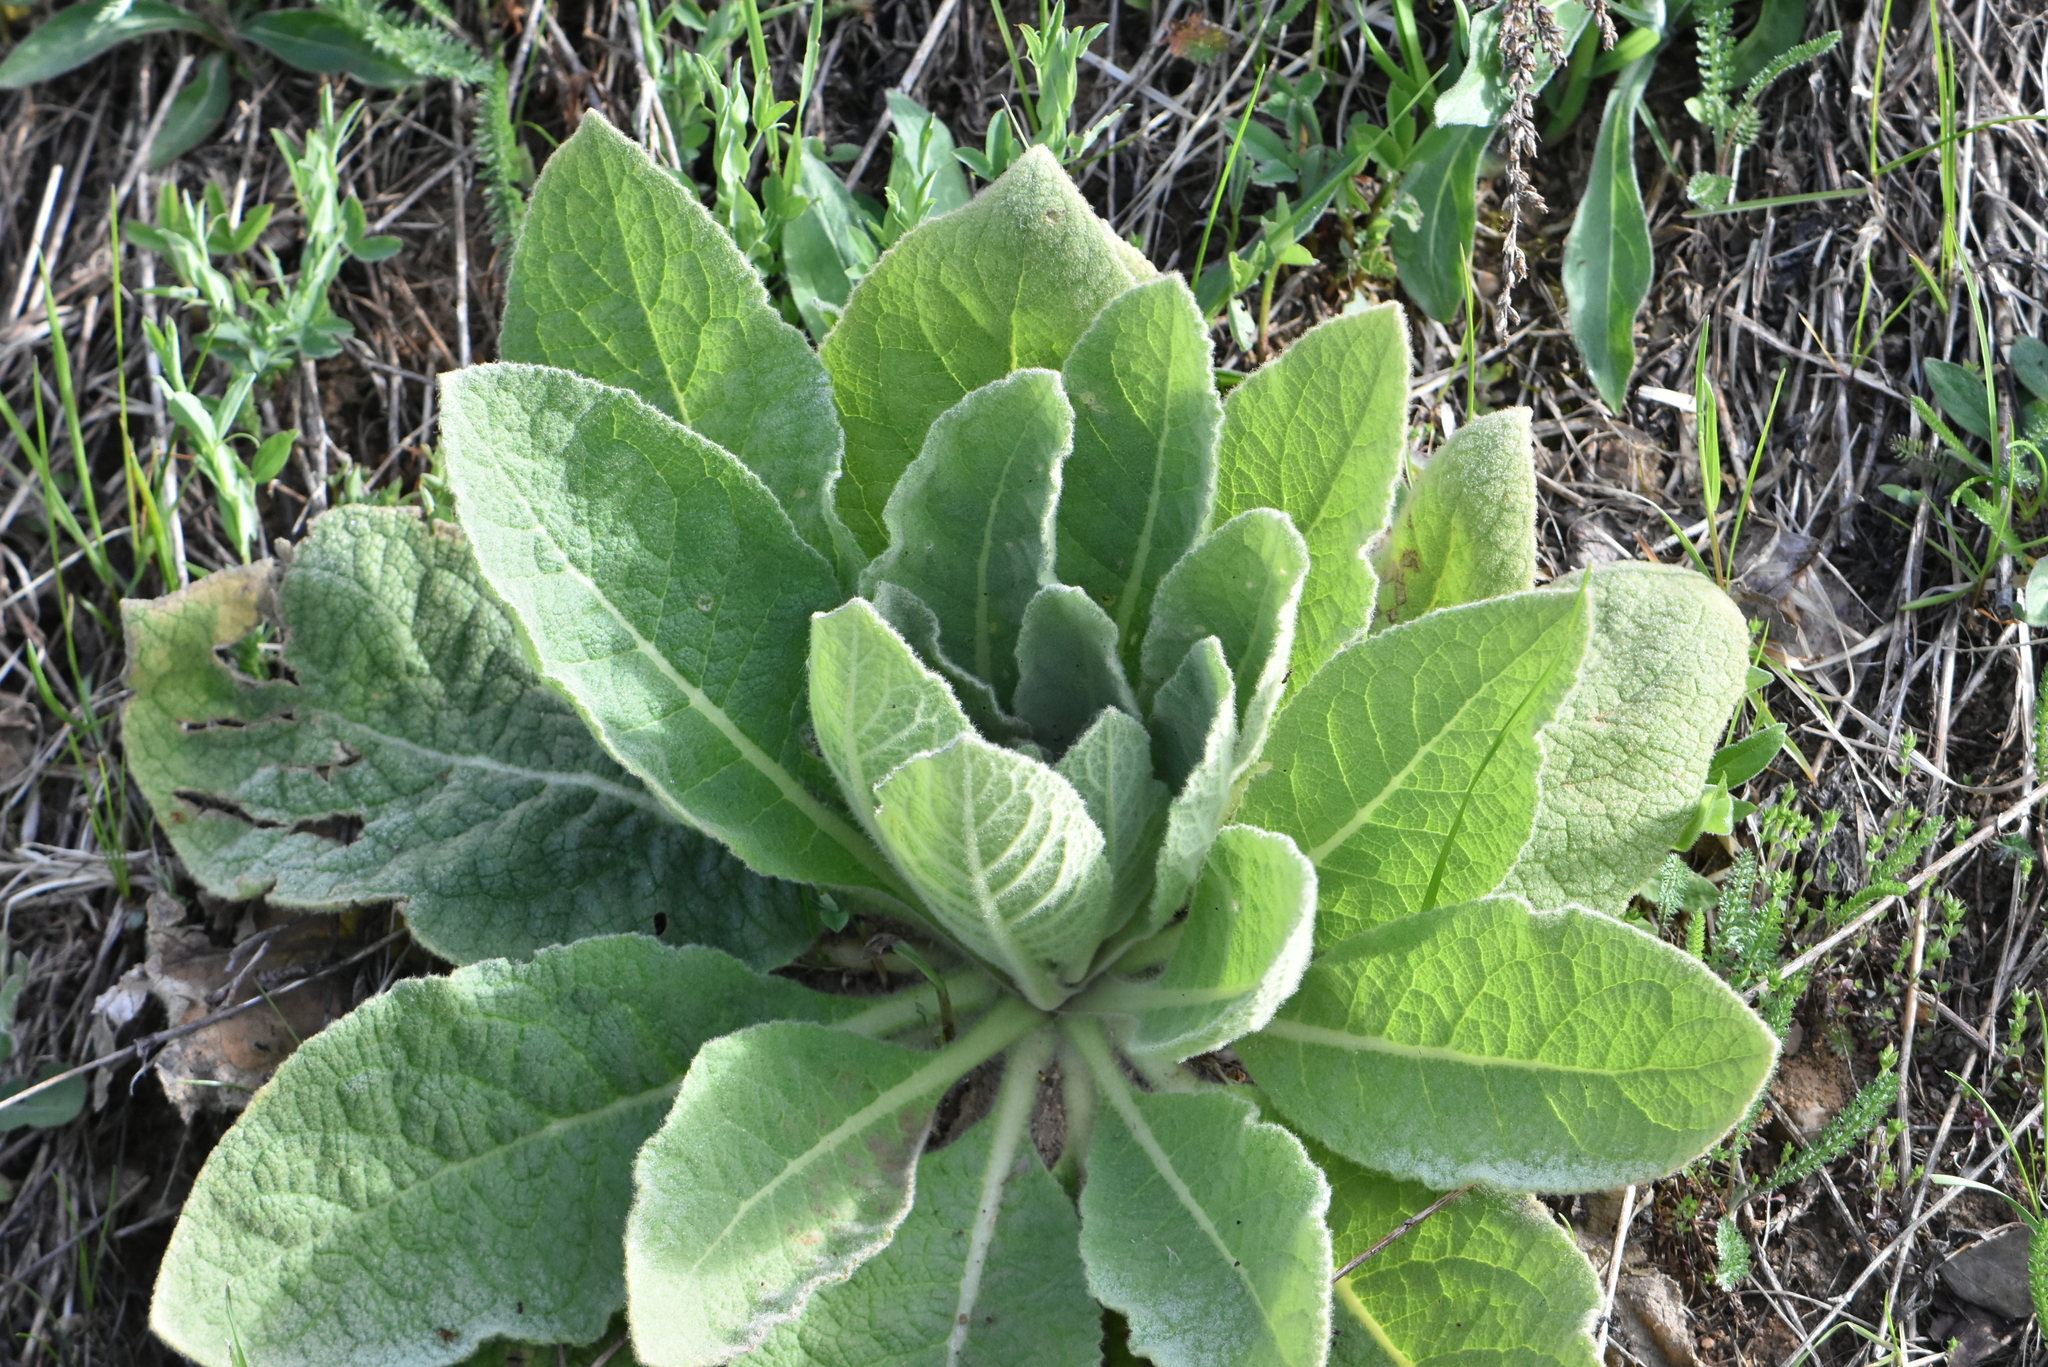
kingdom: Plantae
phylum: Tracheophyta
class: Magnoliopsida
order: Lamiales
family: Scrophulariaceae
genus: Verbascum
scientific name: Verbascum thapsus
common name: Common mullein
